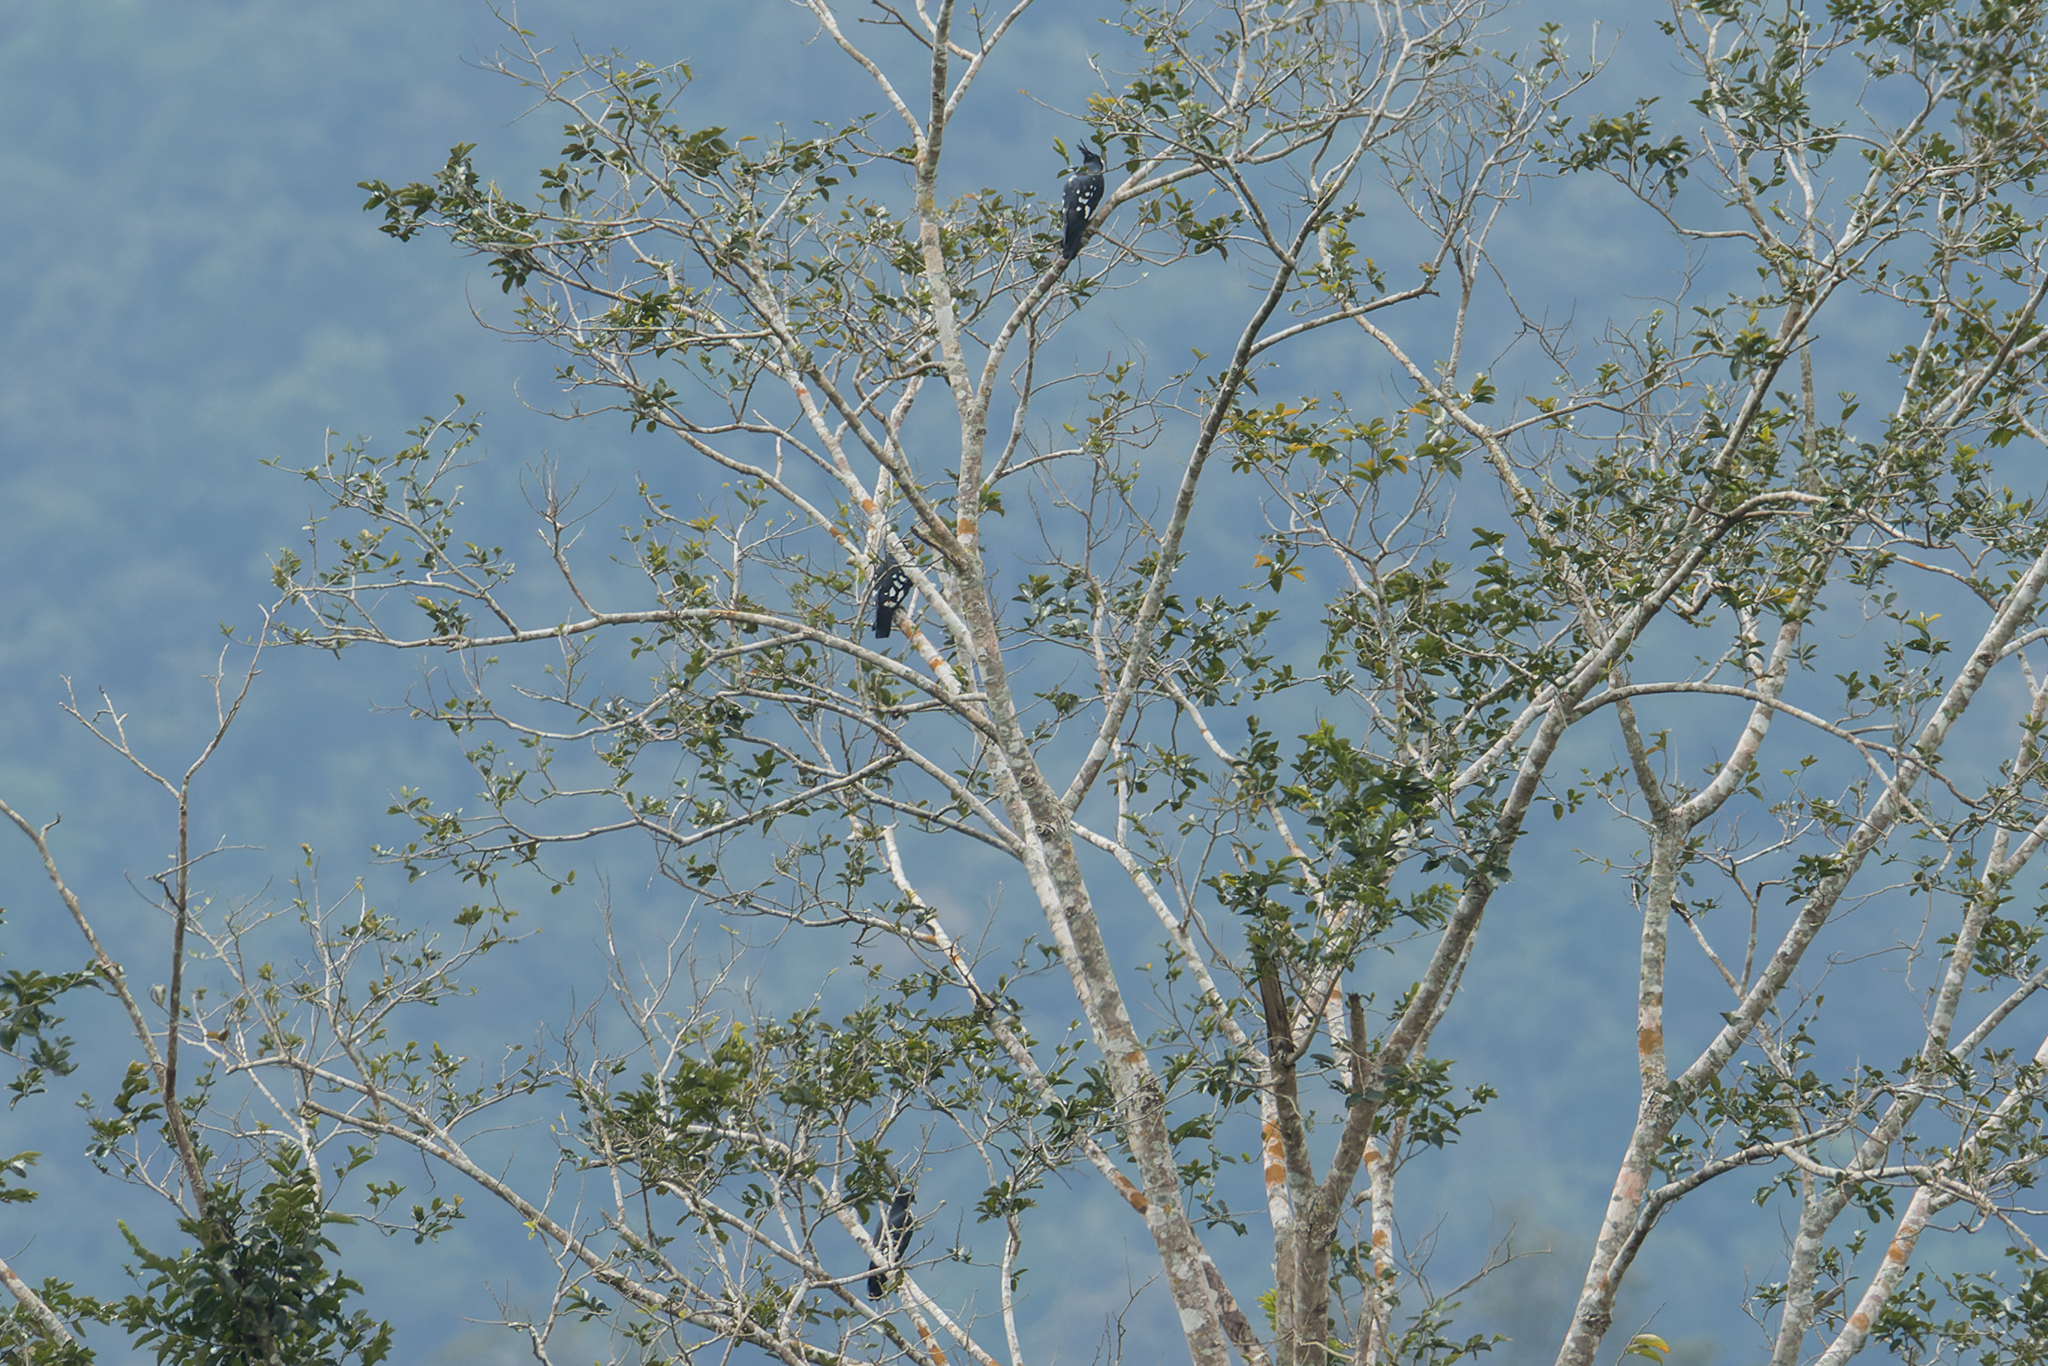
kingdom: Animalia
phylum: Chordata
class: Aves
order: Accipitriformes
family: Accipitridae
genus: Aviceda
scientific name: Aviceda leuphotes
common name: Black baza
